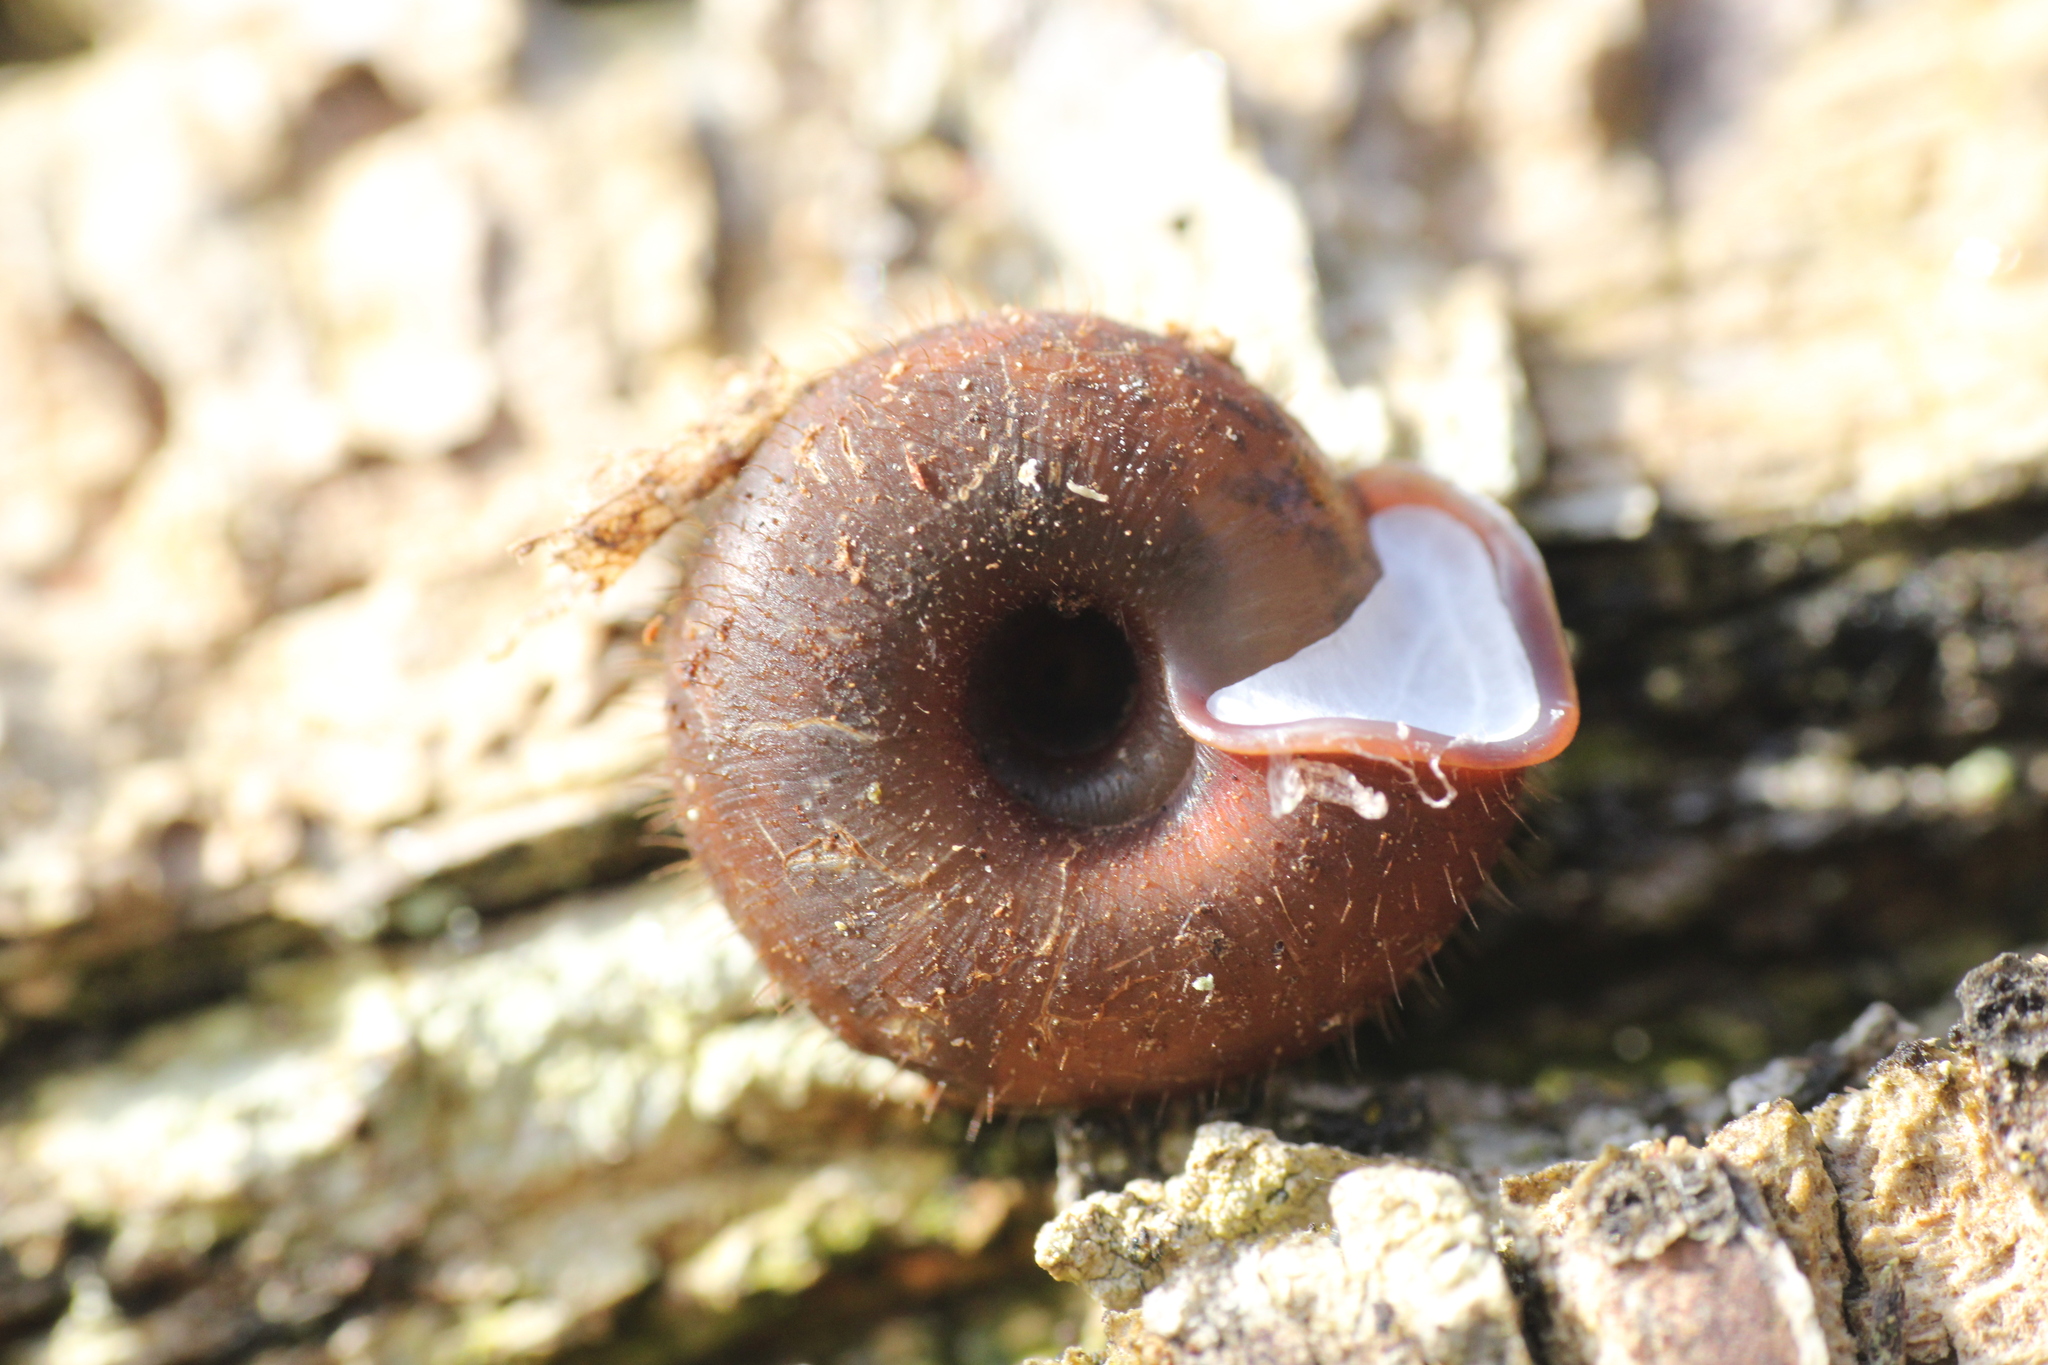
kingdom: Animalia
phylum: Mollusca
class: Gastropoda
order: Stylommatophora
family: Helicodontidae
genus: Helicodonta
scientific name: Helicodonta obvoluta
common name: Cheese snail
